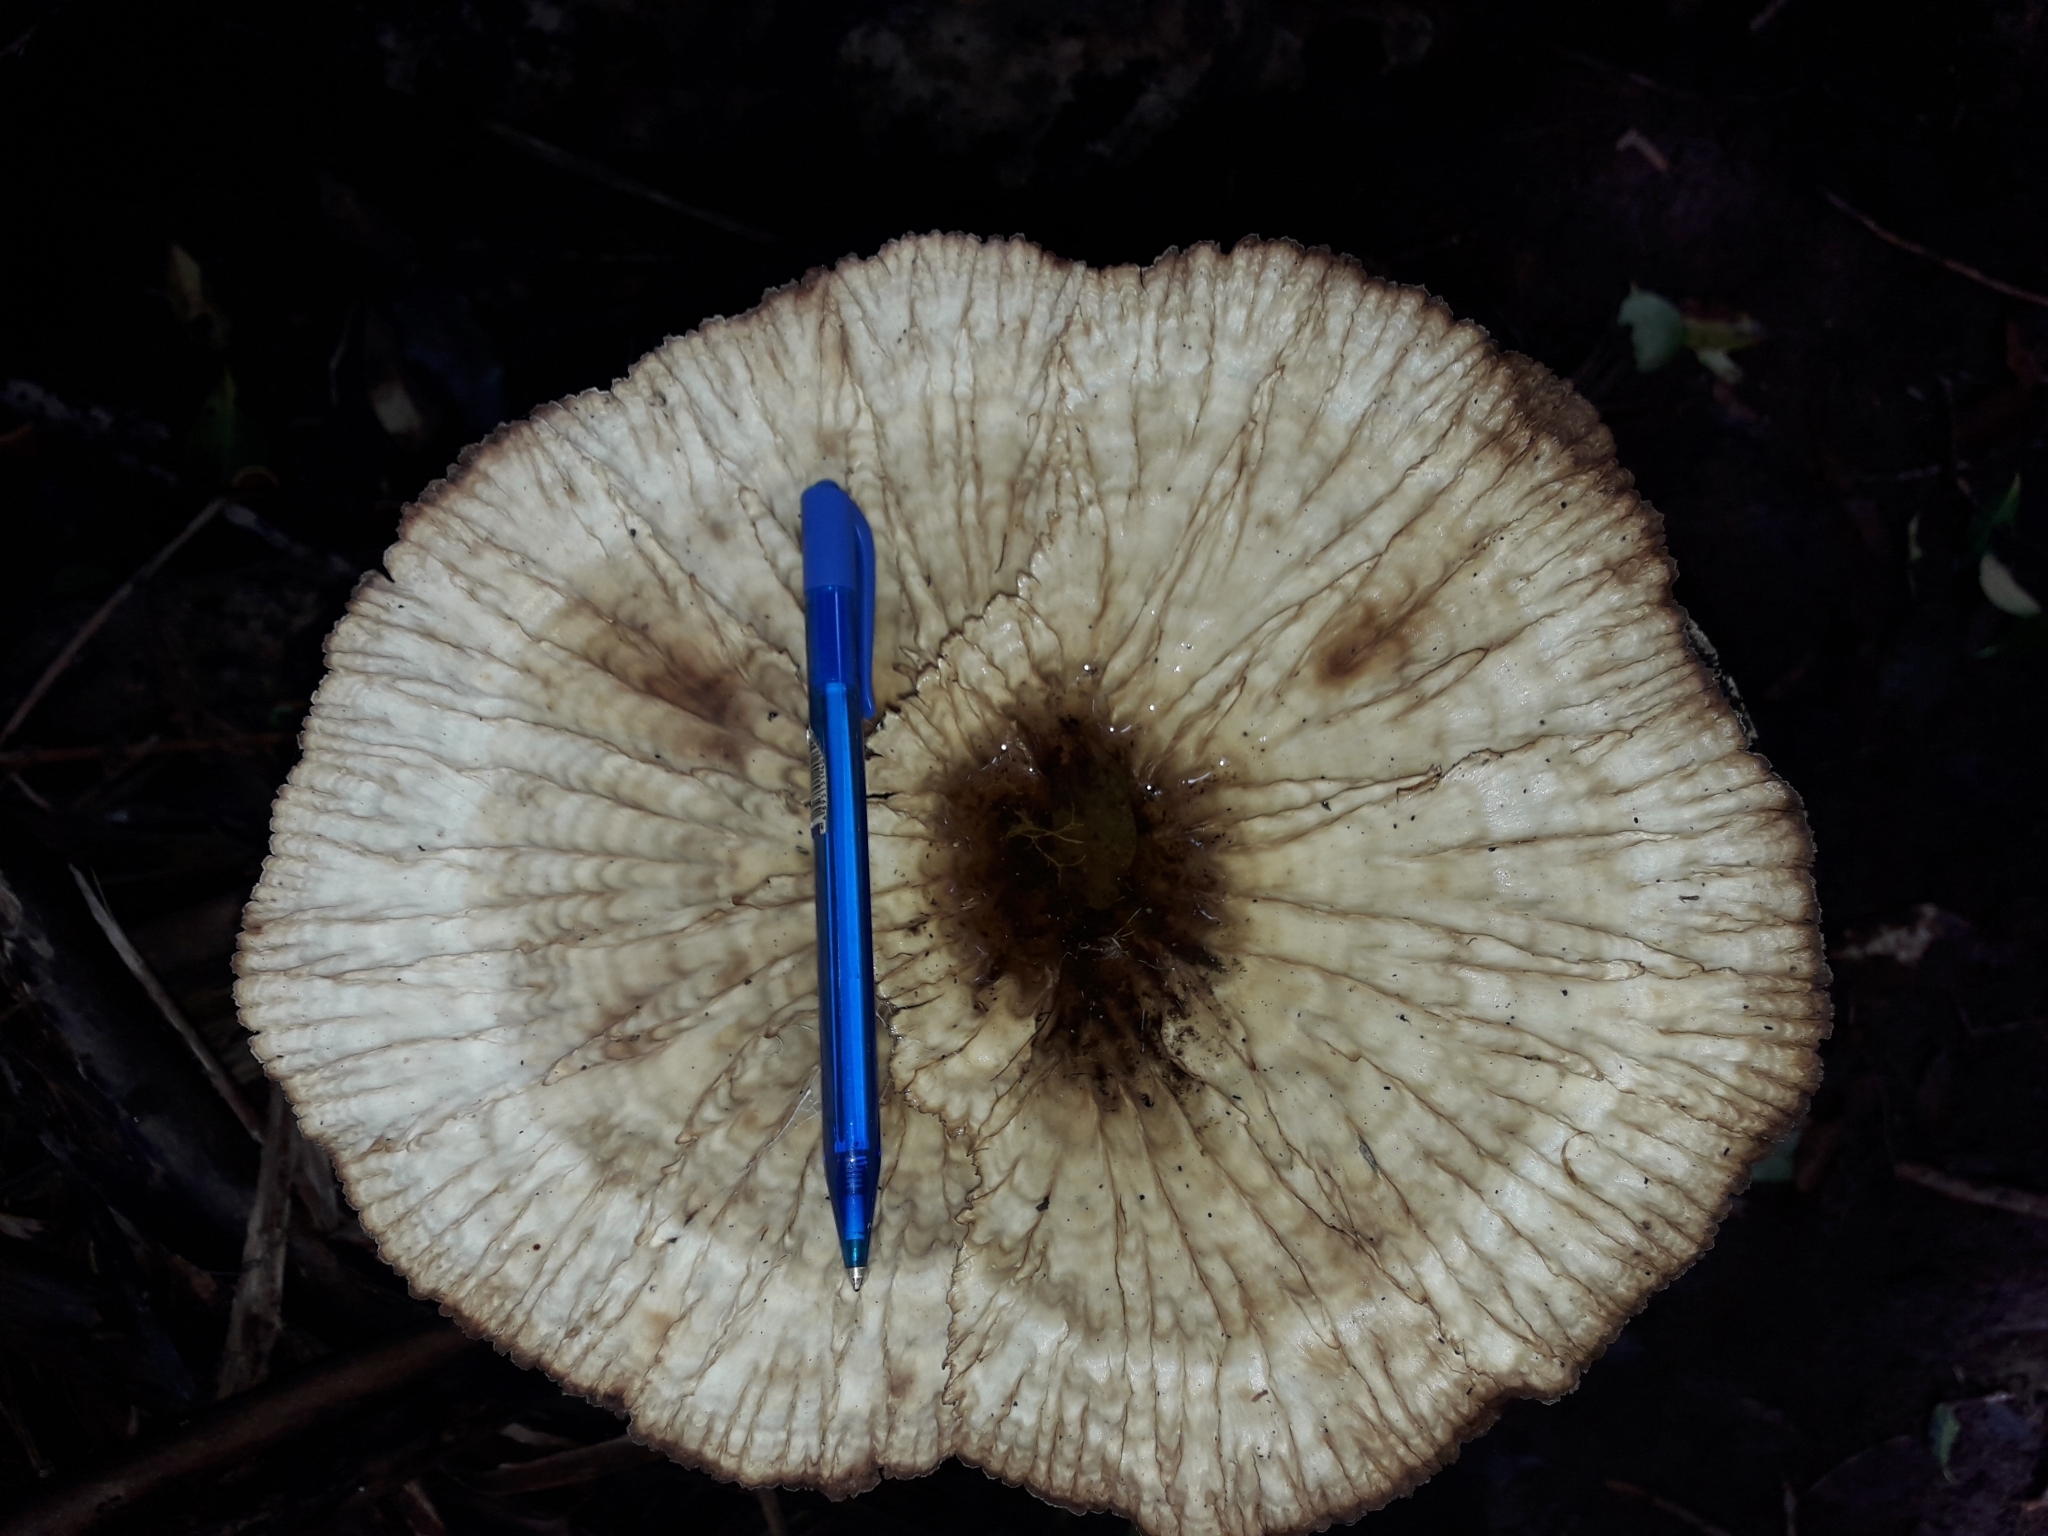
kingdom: Fungi
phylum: Basidiomycota
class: Agaricomycetes
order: Polyporales
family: Panaceae
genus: Cymatoderma
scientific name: Cymatoderma elegans
